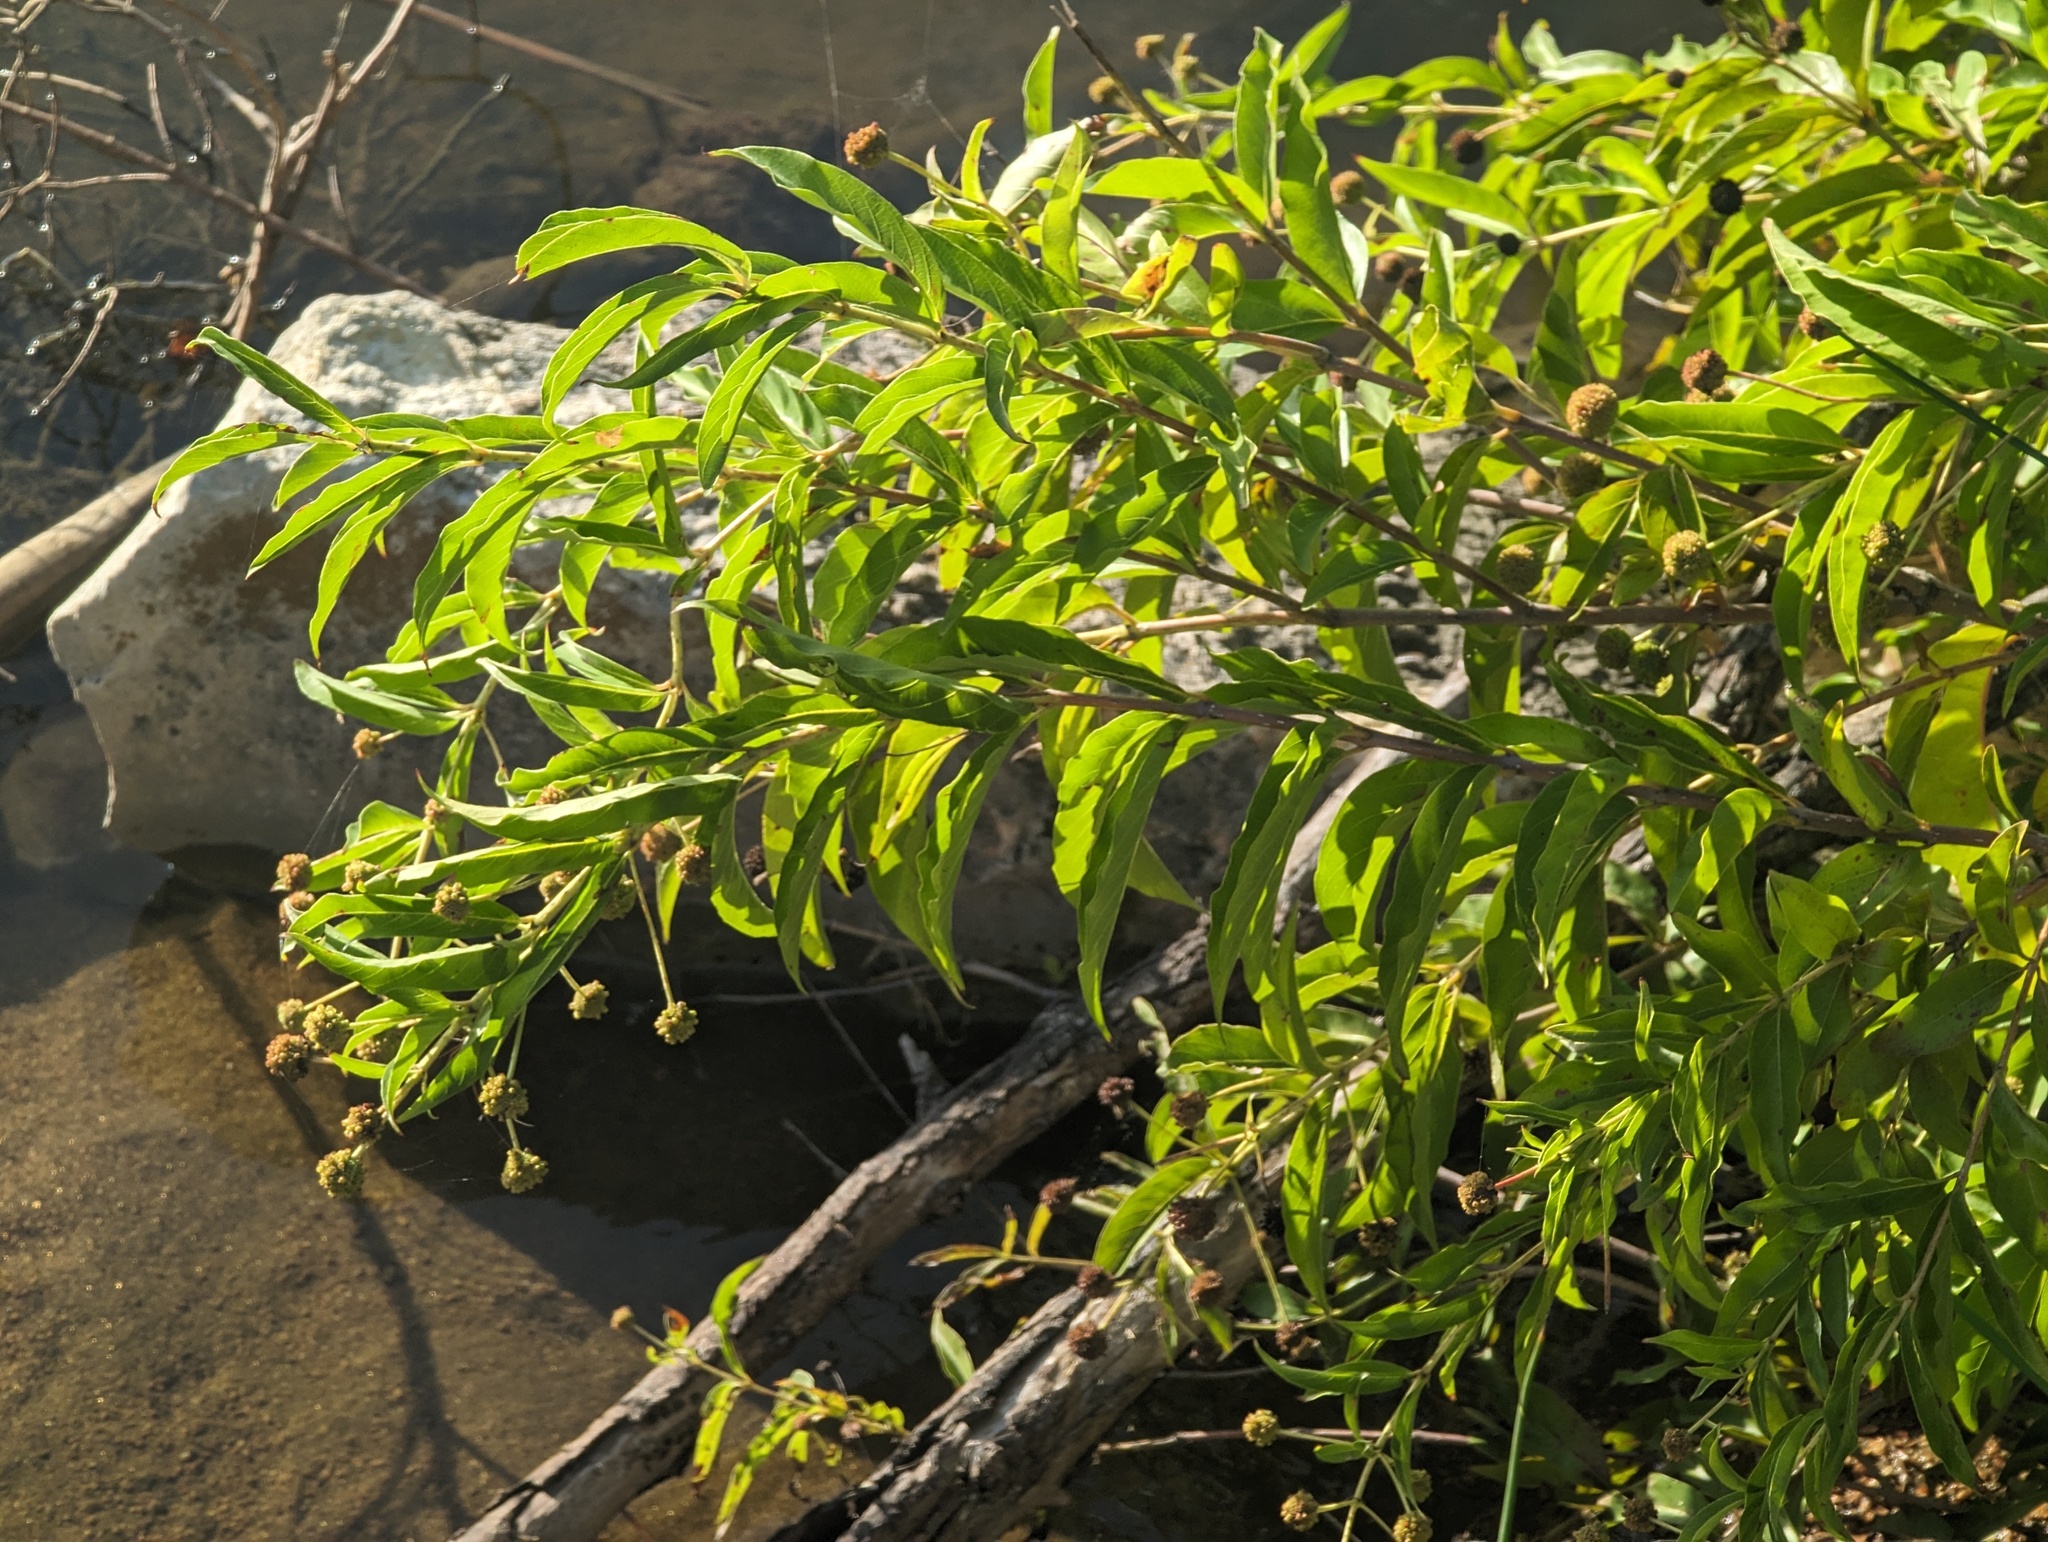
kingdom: Plantae
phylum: Tracheophyta
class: Magnoliopsida
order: Gentianales
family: Rubiaceae
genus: Cephalanthus
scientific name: Cephalanthus occidentalis
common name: Button-willow
